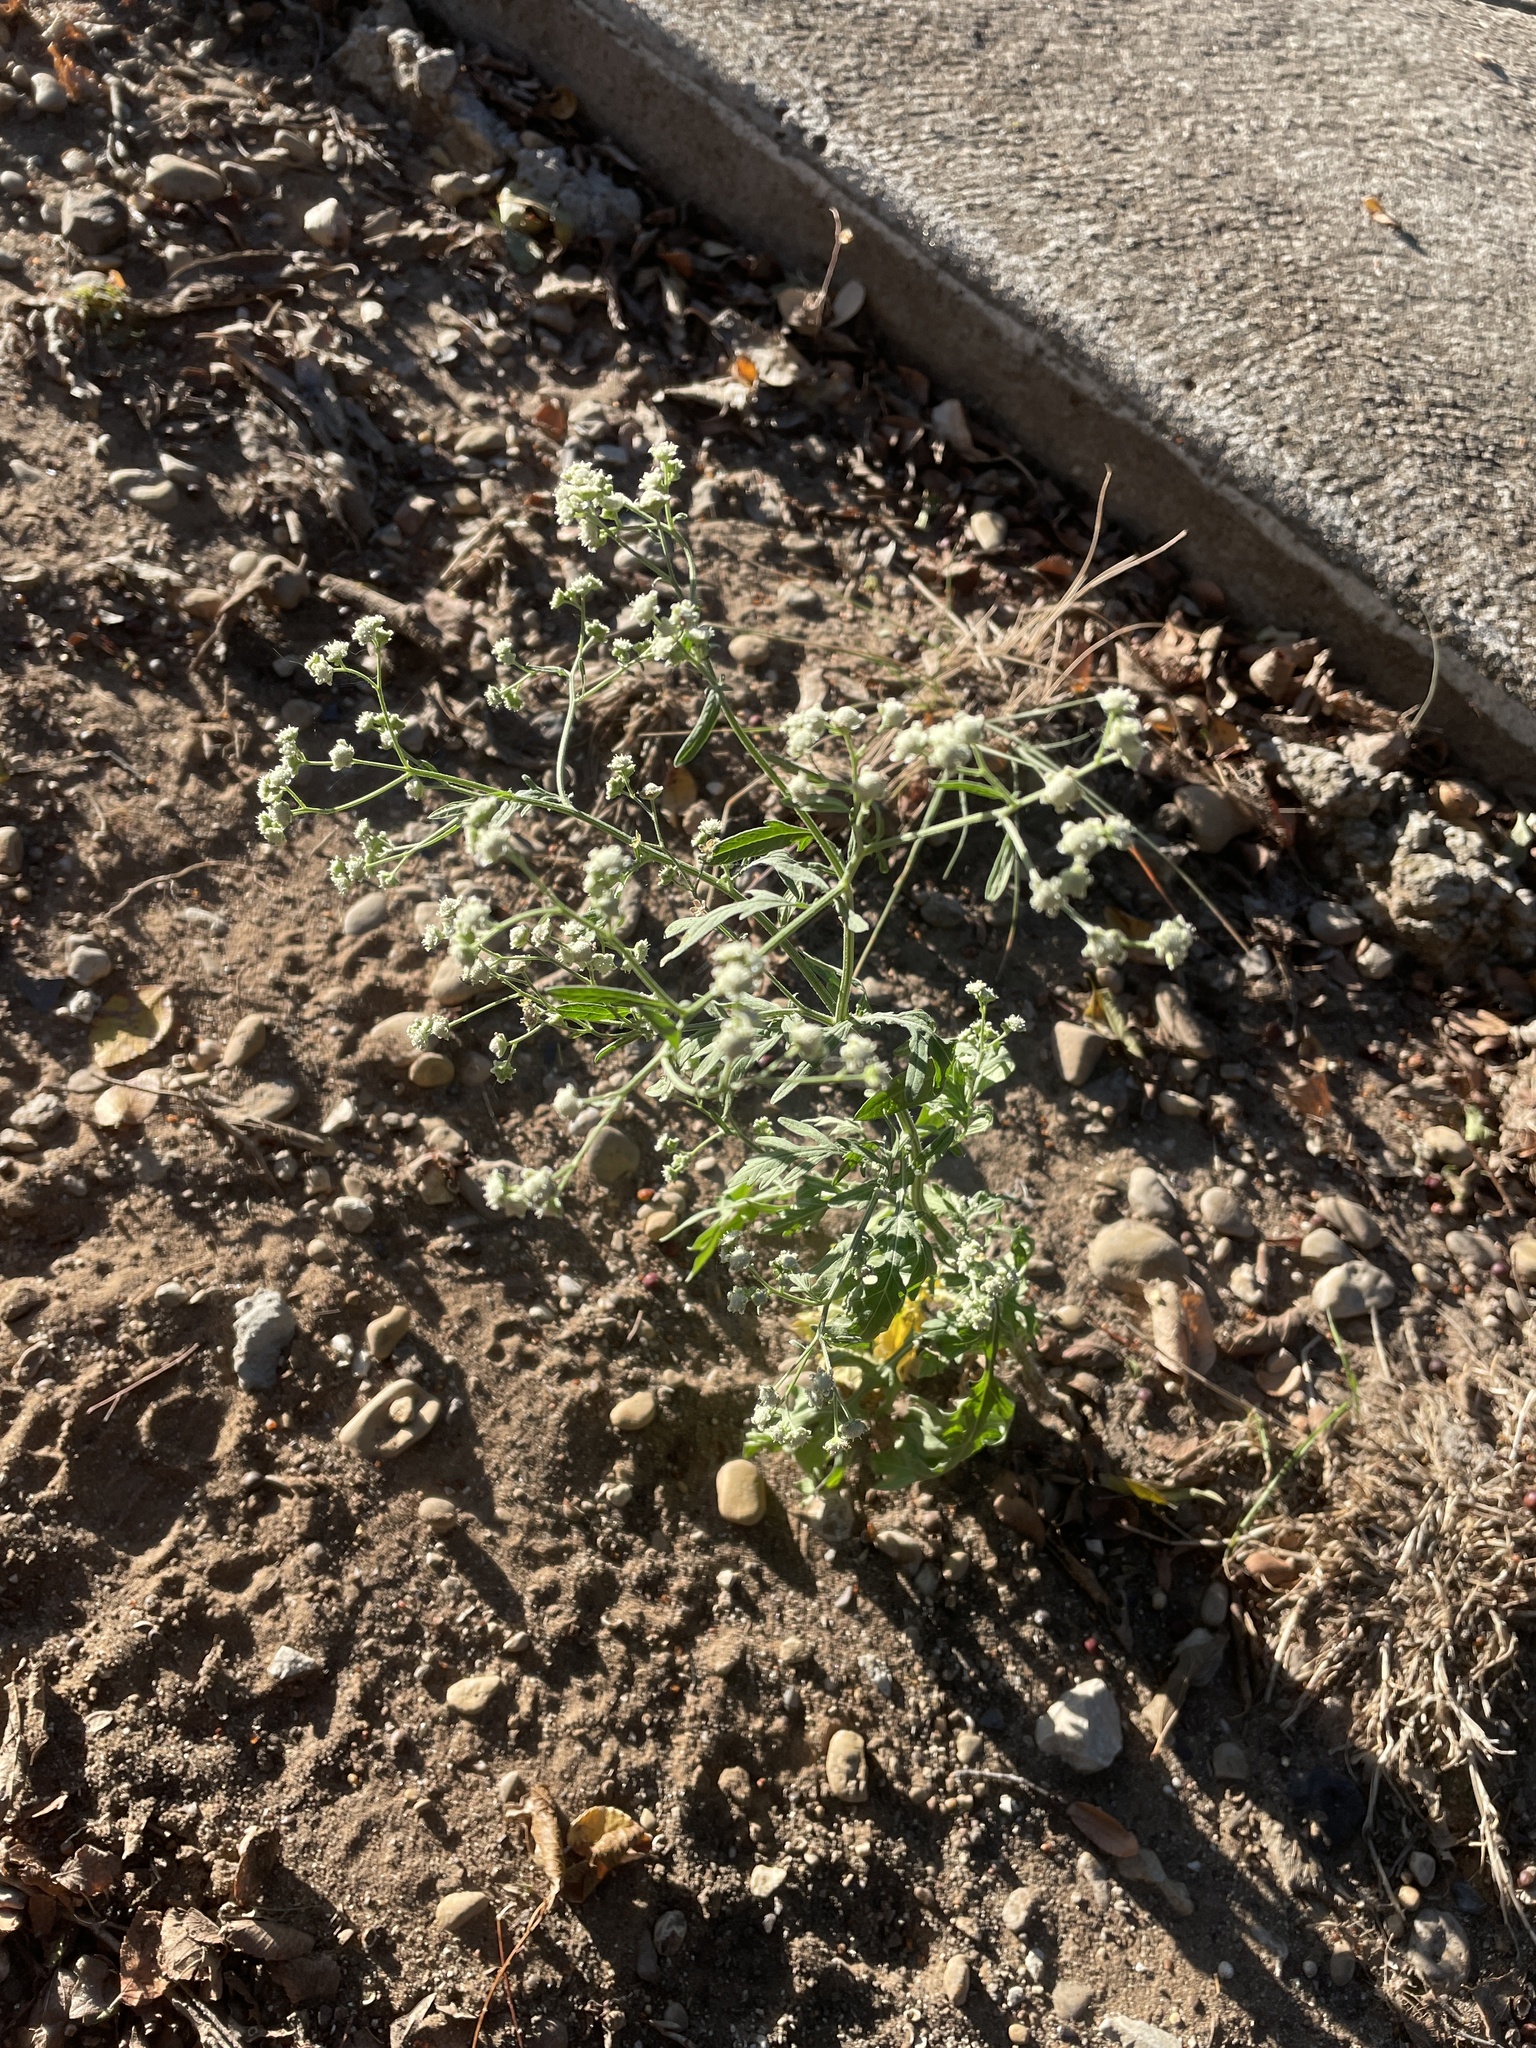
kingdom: Plantae
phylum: Tracheophyta
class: Magnoliopsida
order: Asterales
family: Asteraceae
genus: Parthenium
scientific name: Parthenium hysterophorus
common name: Santa maria feverfew
